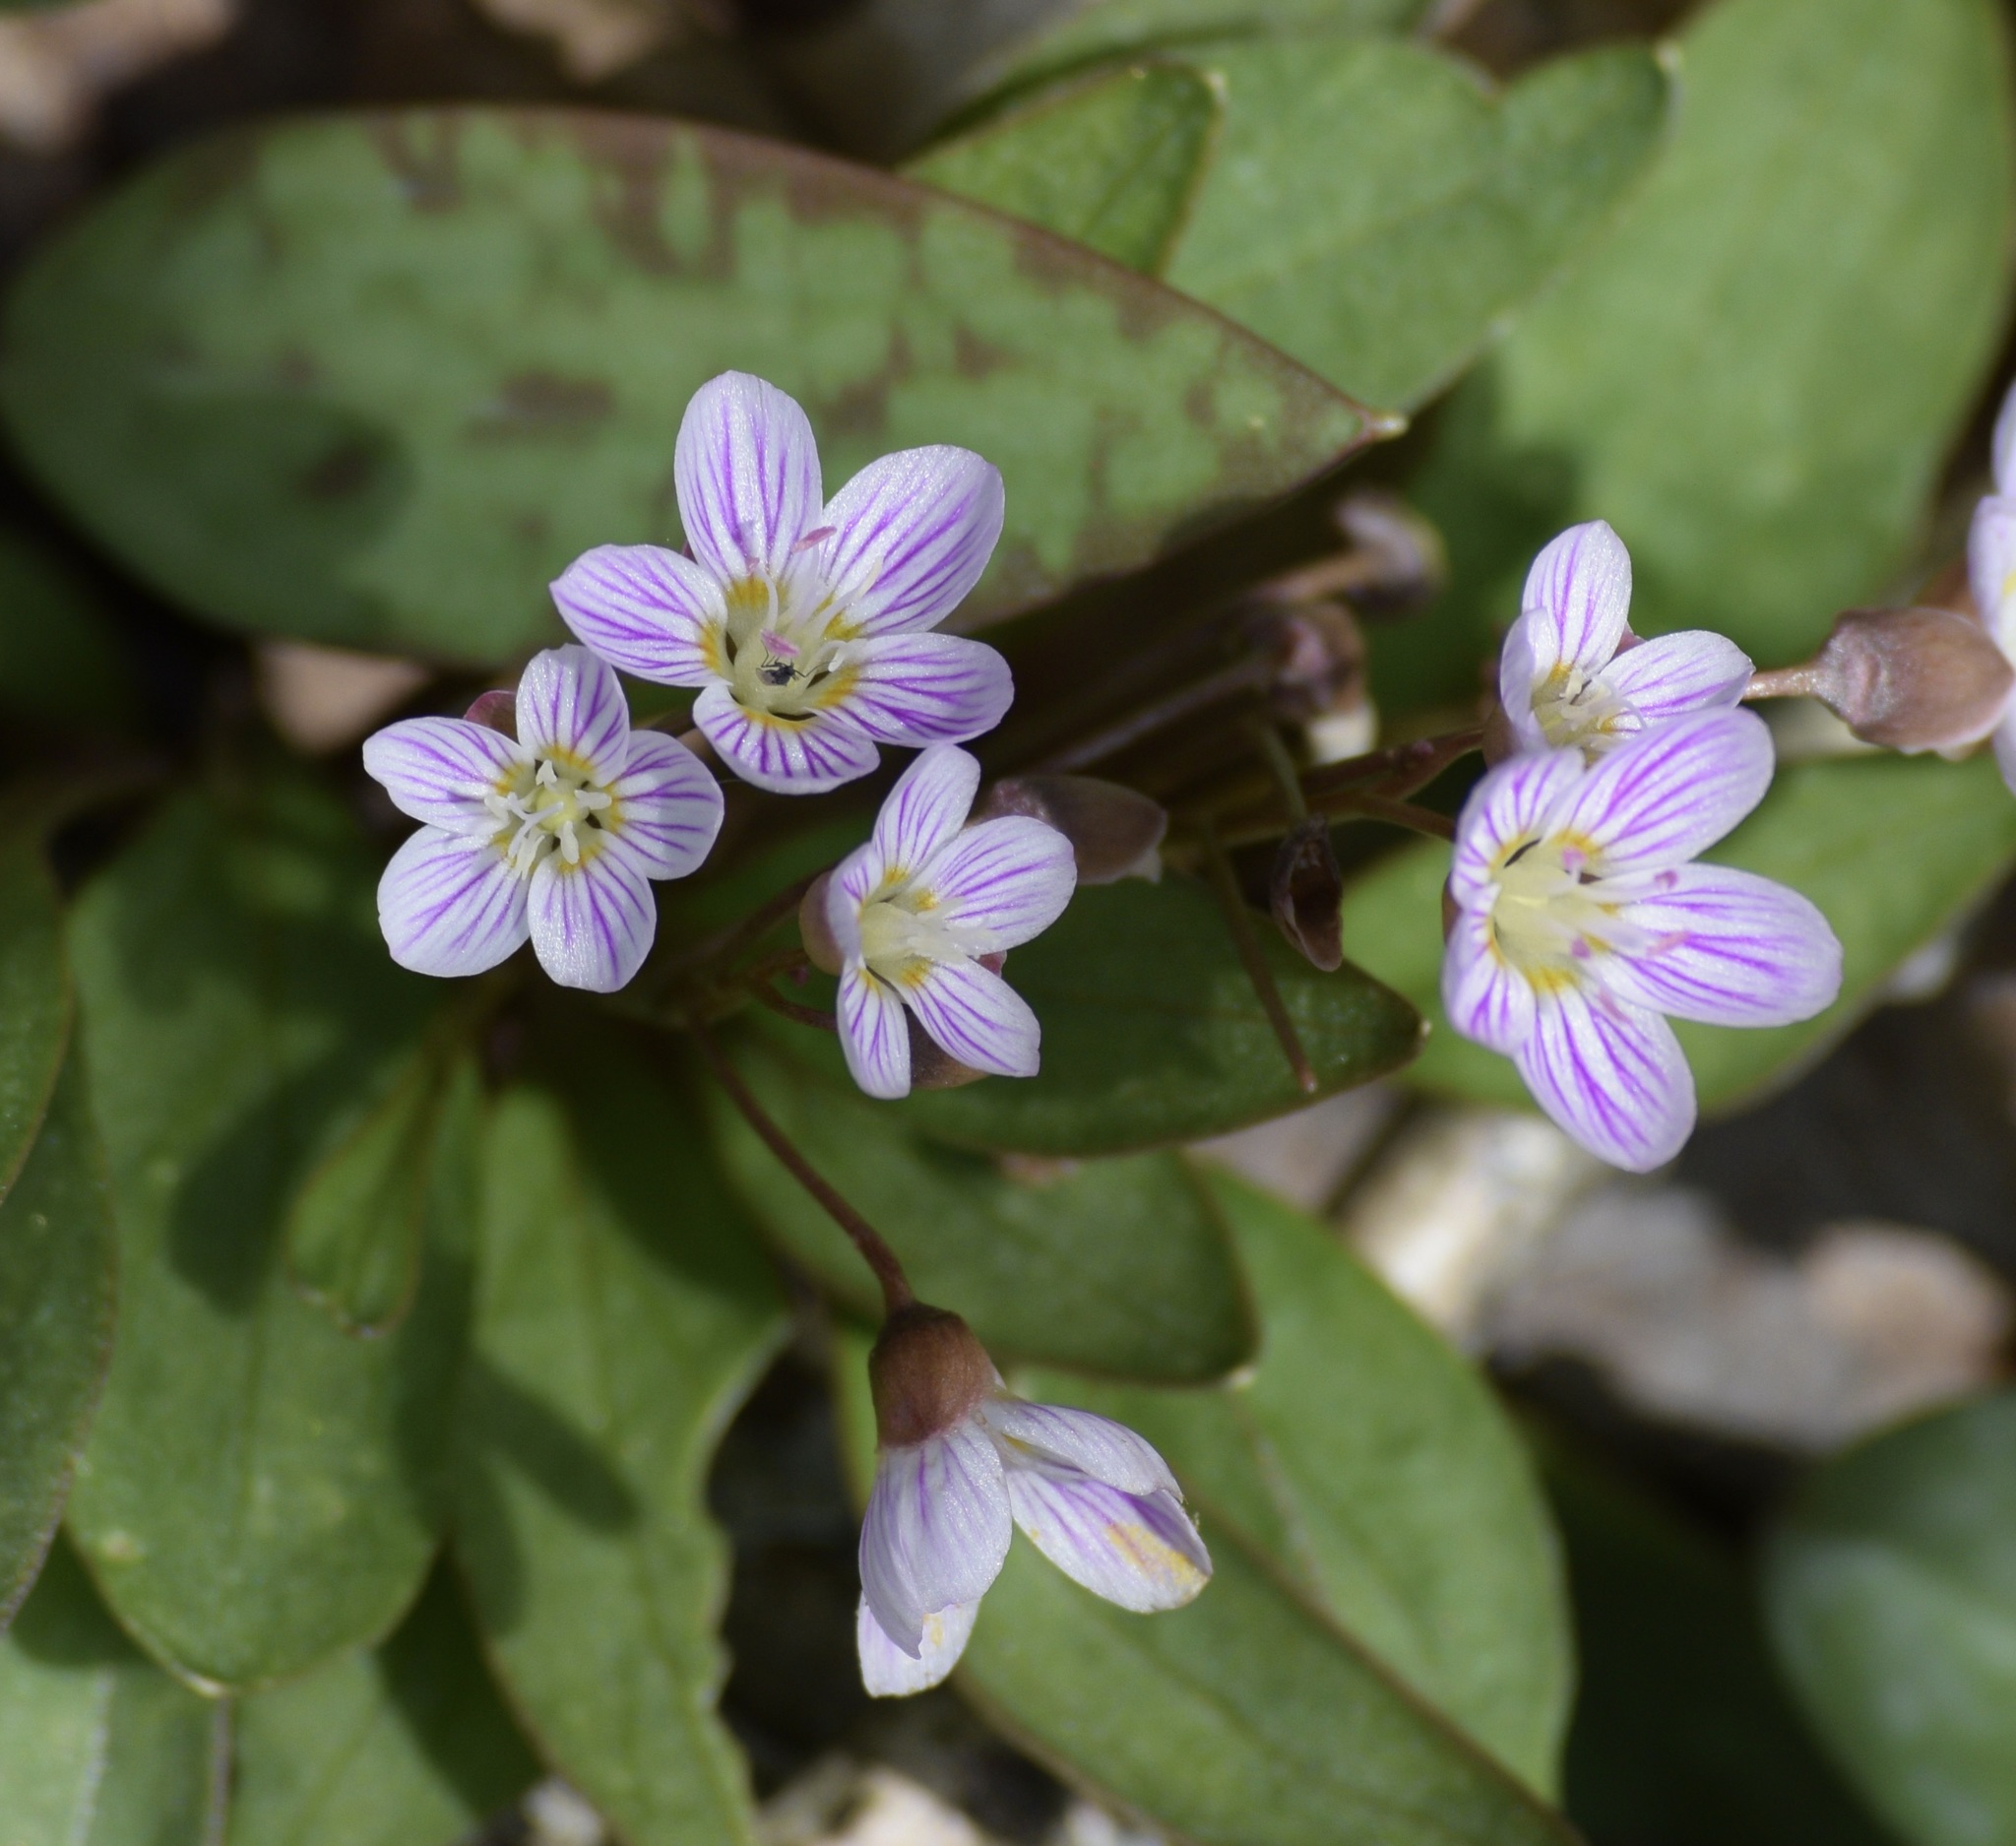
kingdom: Plantae
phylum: Tracheophyta
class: Magnoliopsida
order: Caryophyllales
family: Montiaceae
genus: Claytonia
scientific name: Claytonia caroliniana
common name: Carolina spring beauty
